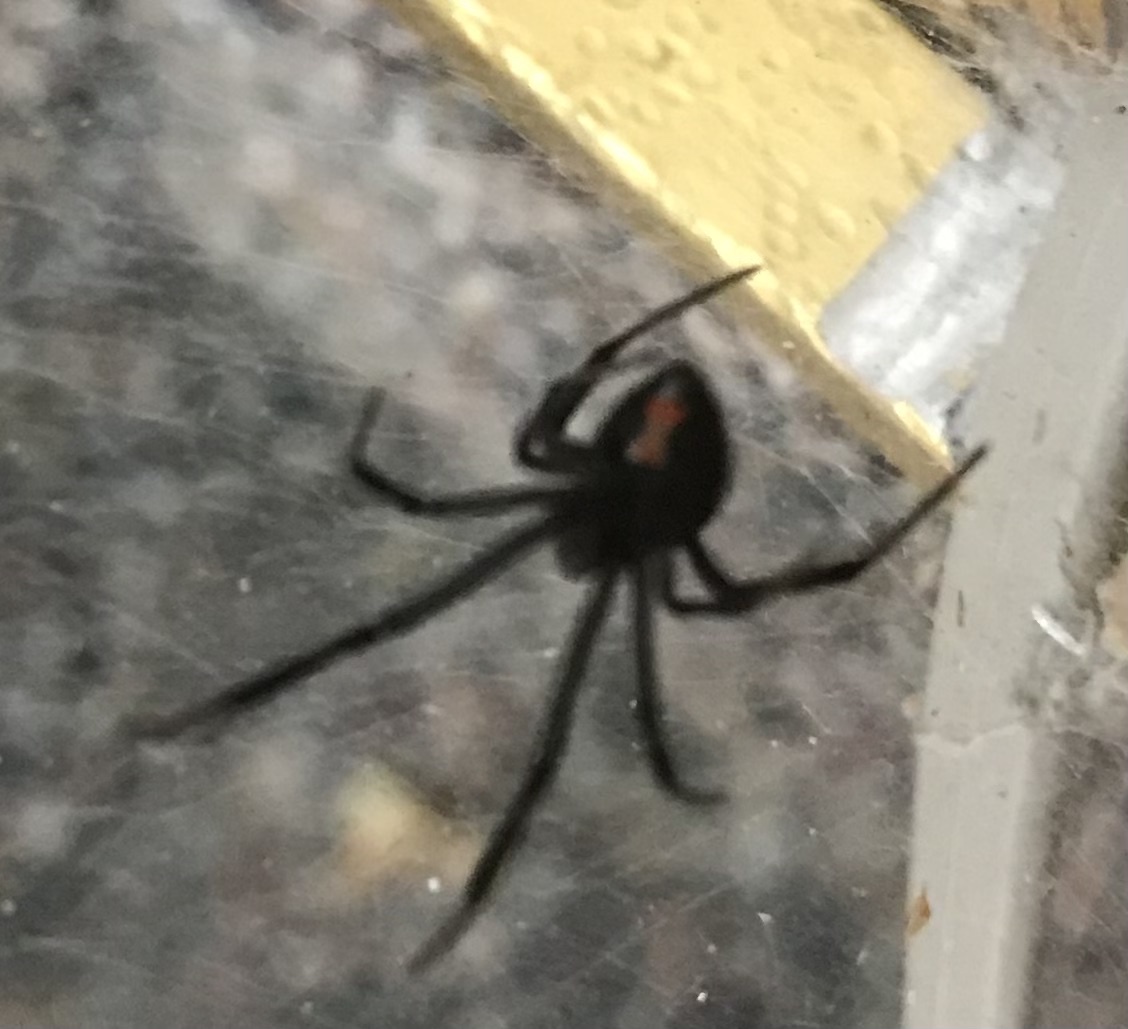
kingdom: Animalia
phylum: Arthropoda
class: Arachnida
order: Araneae
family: Theridiidae
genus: Latrodectus
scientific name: Latrodectus hesperus
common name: Western black widow
